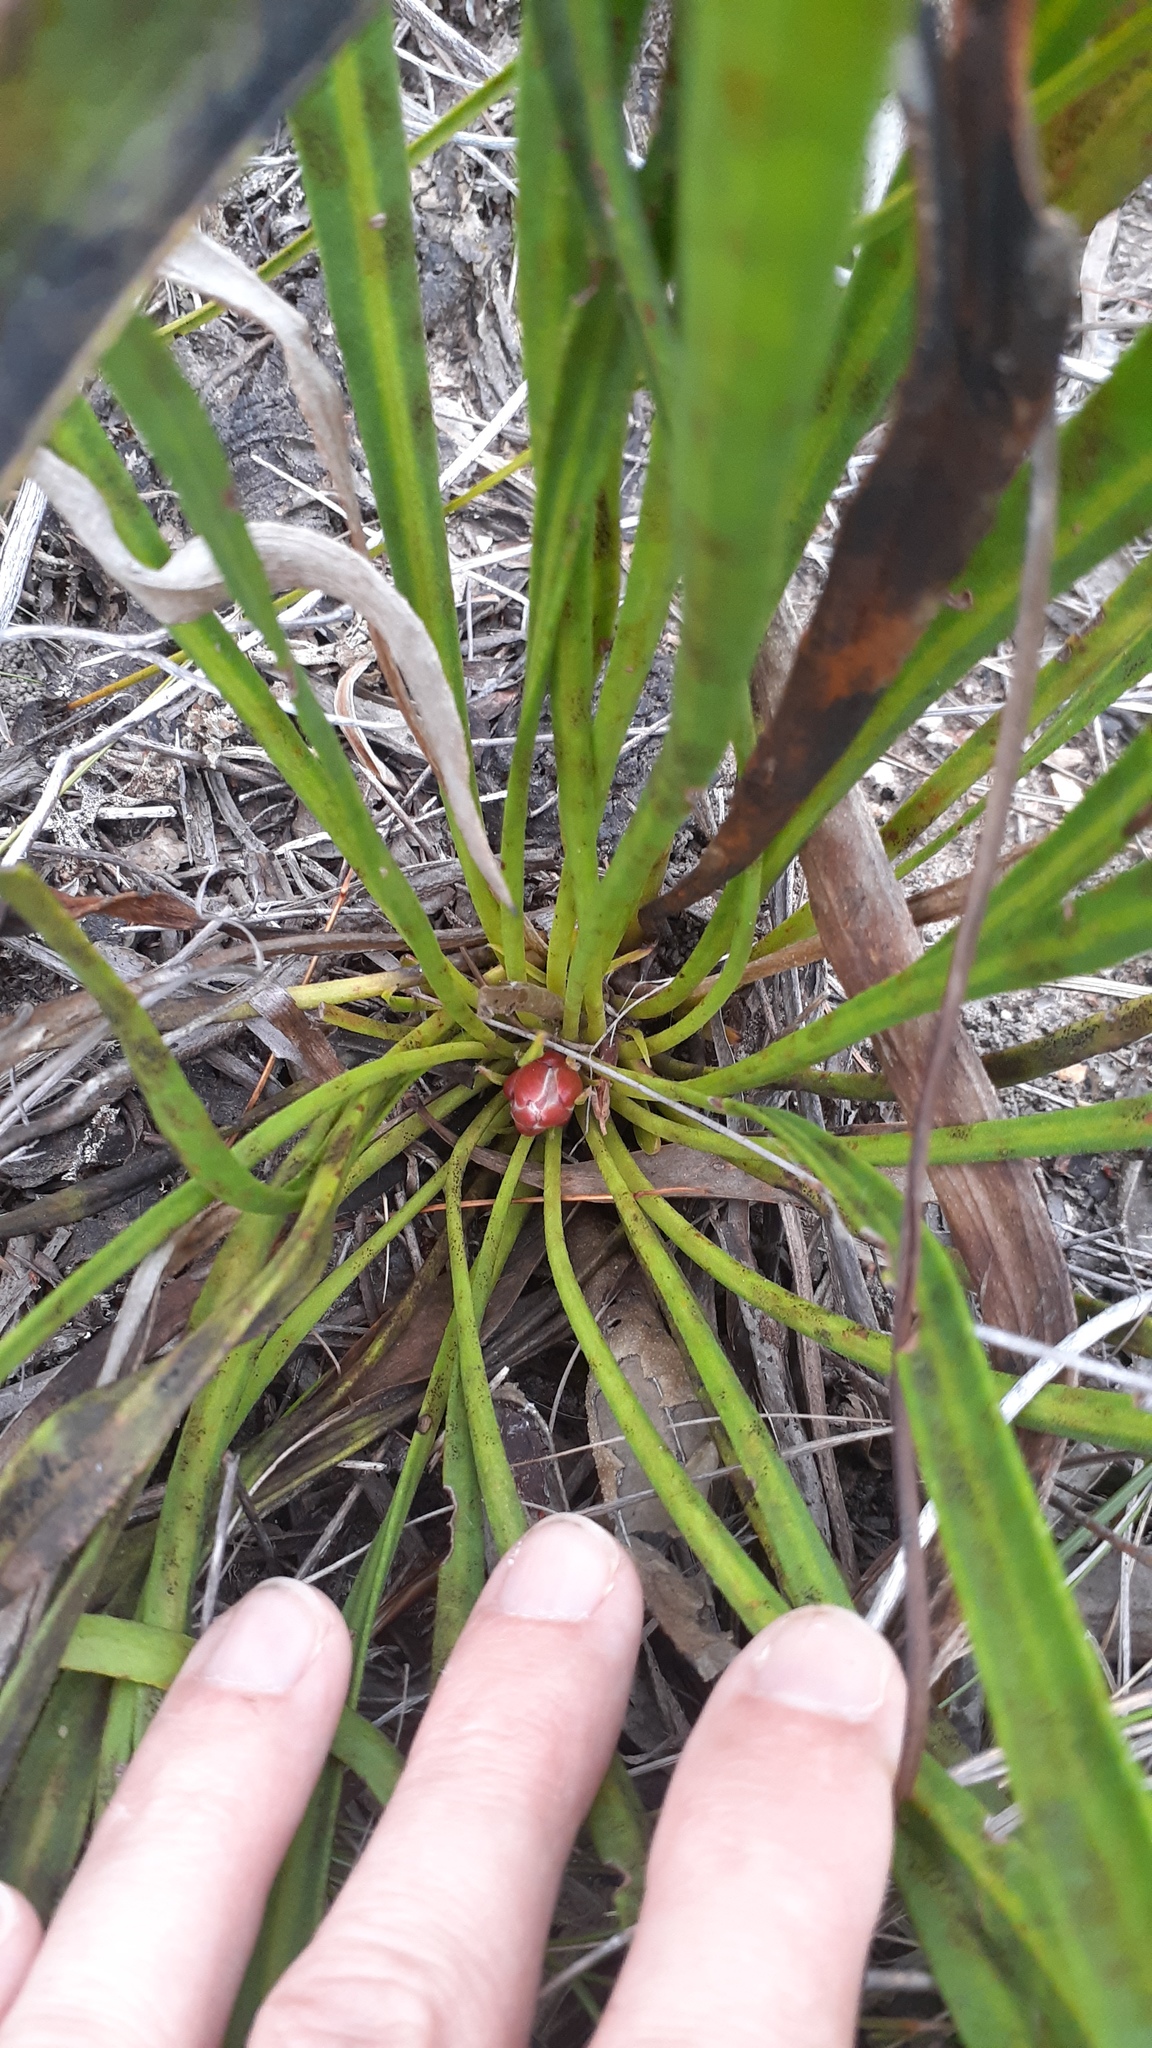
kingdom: Plantae
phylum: Tracheophyta
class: Magnoliopsida
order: Proteales
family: Proteaceae
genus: Protea
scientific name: Protea scabra
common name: Sandpaper-leaf sugarbush
